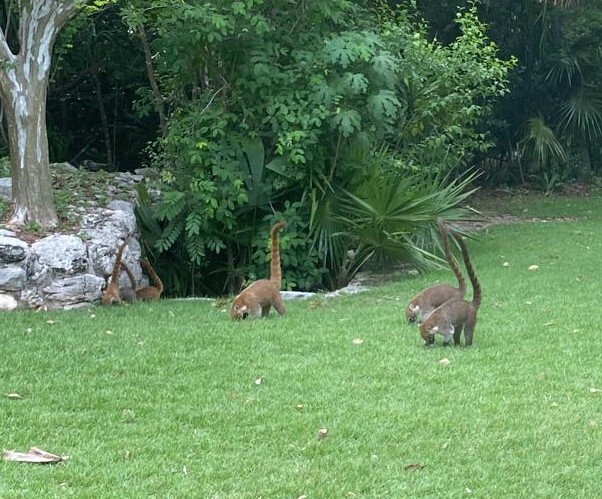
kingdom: Animalia
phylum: Chordata
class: Mammalia
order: Carnivora
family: Procyonidae
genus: Nasua
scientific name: Nasua narica
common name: White-nosed coati
